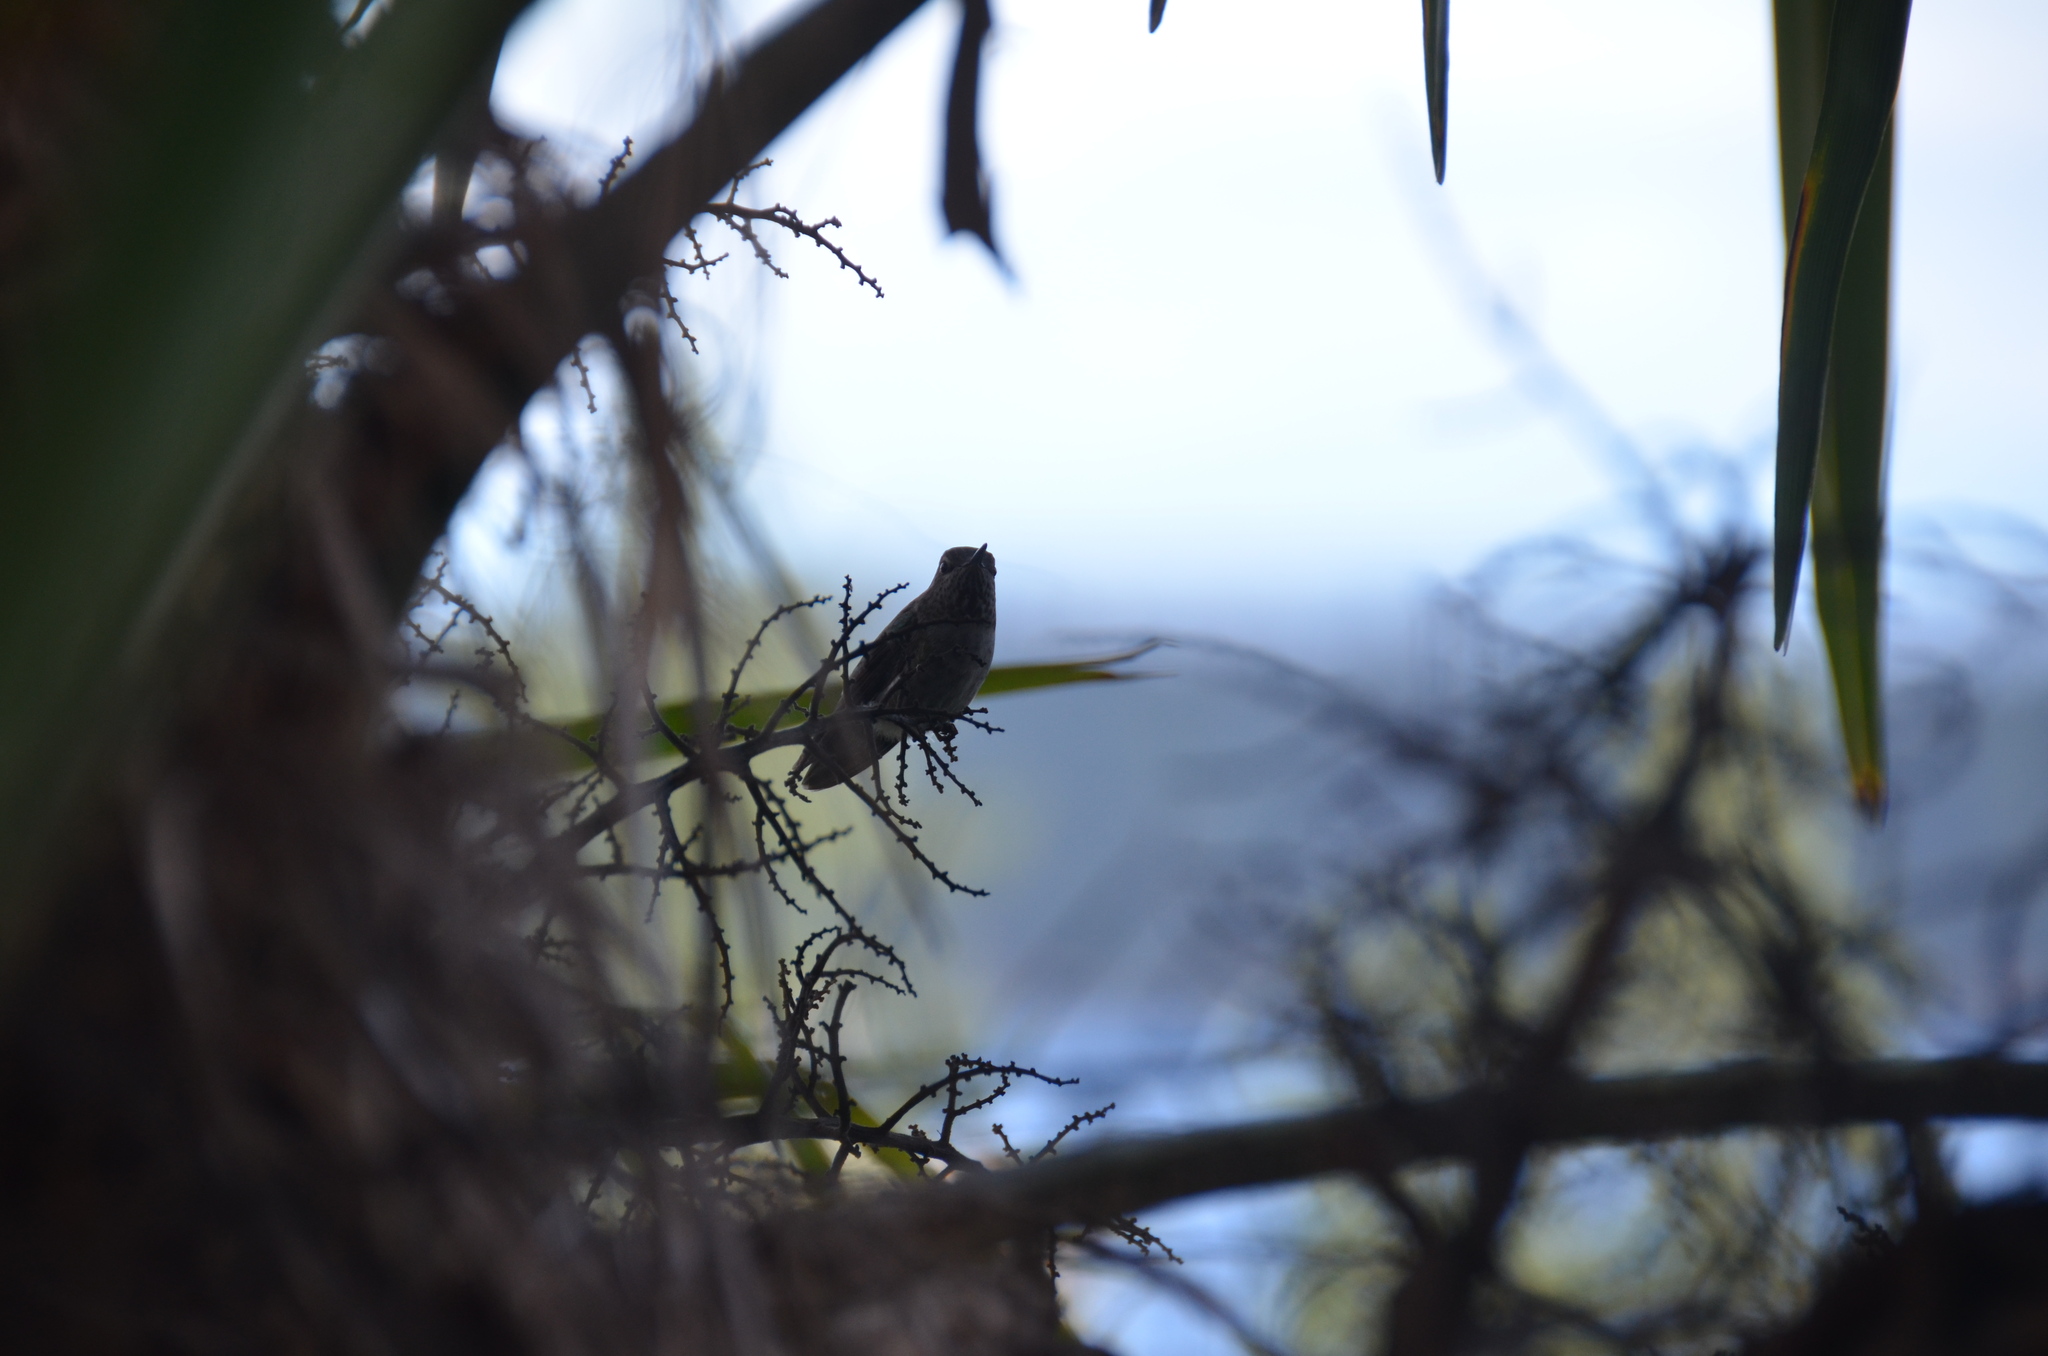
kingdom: Animalia
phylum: Chordata
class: Aves
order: Apodiformes
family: Trochilidae
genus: Calypte
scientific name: Calypte anna
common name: Anna's hummingbird
